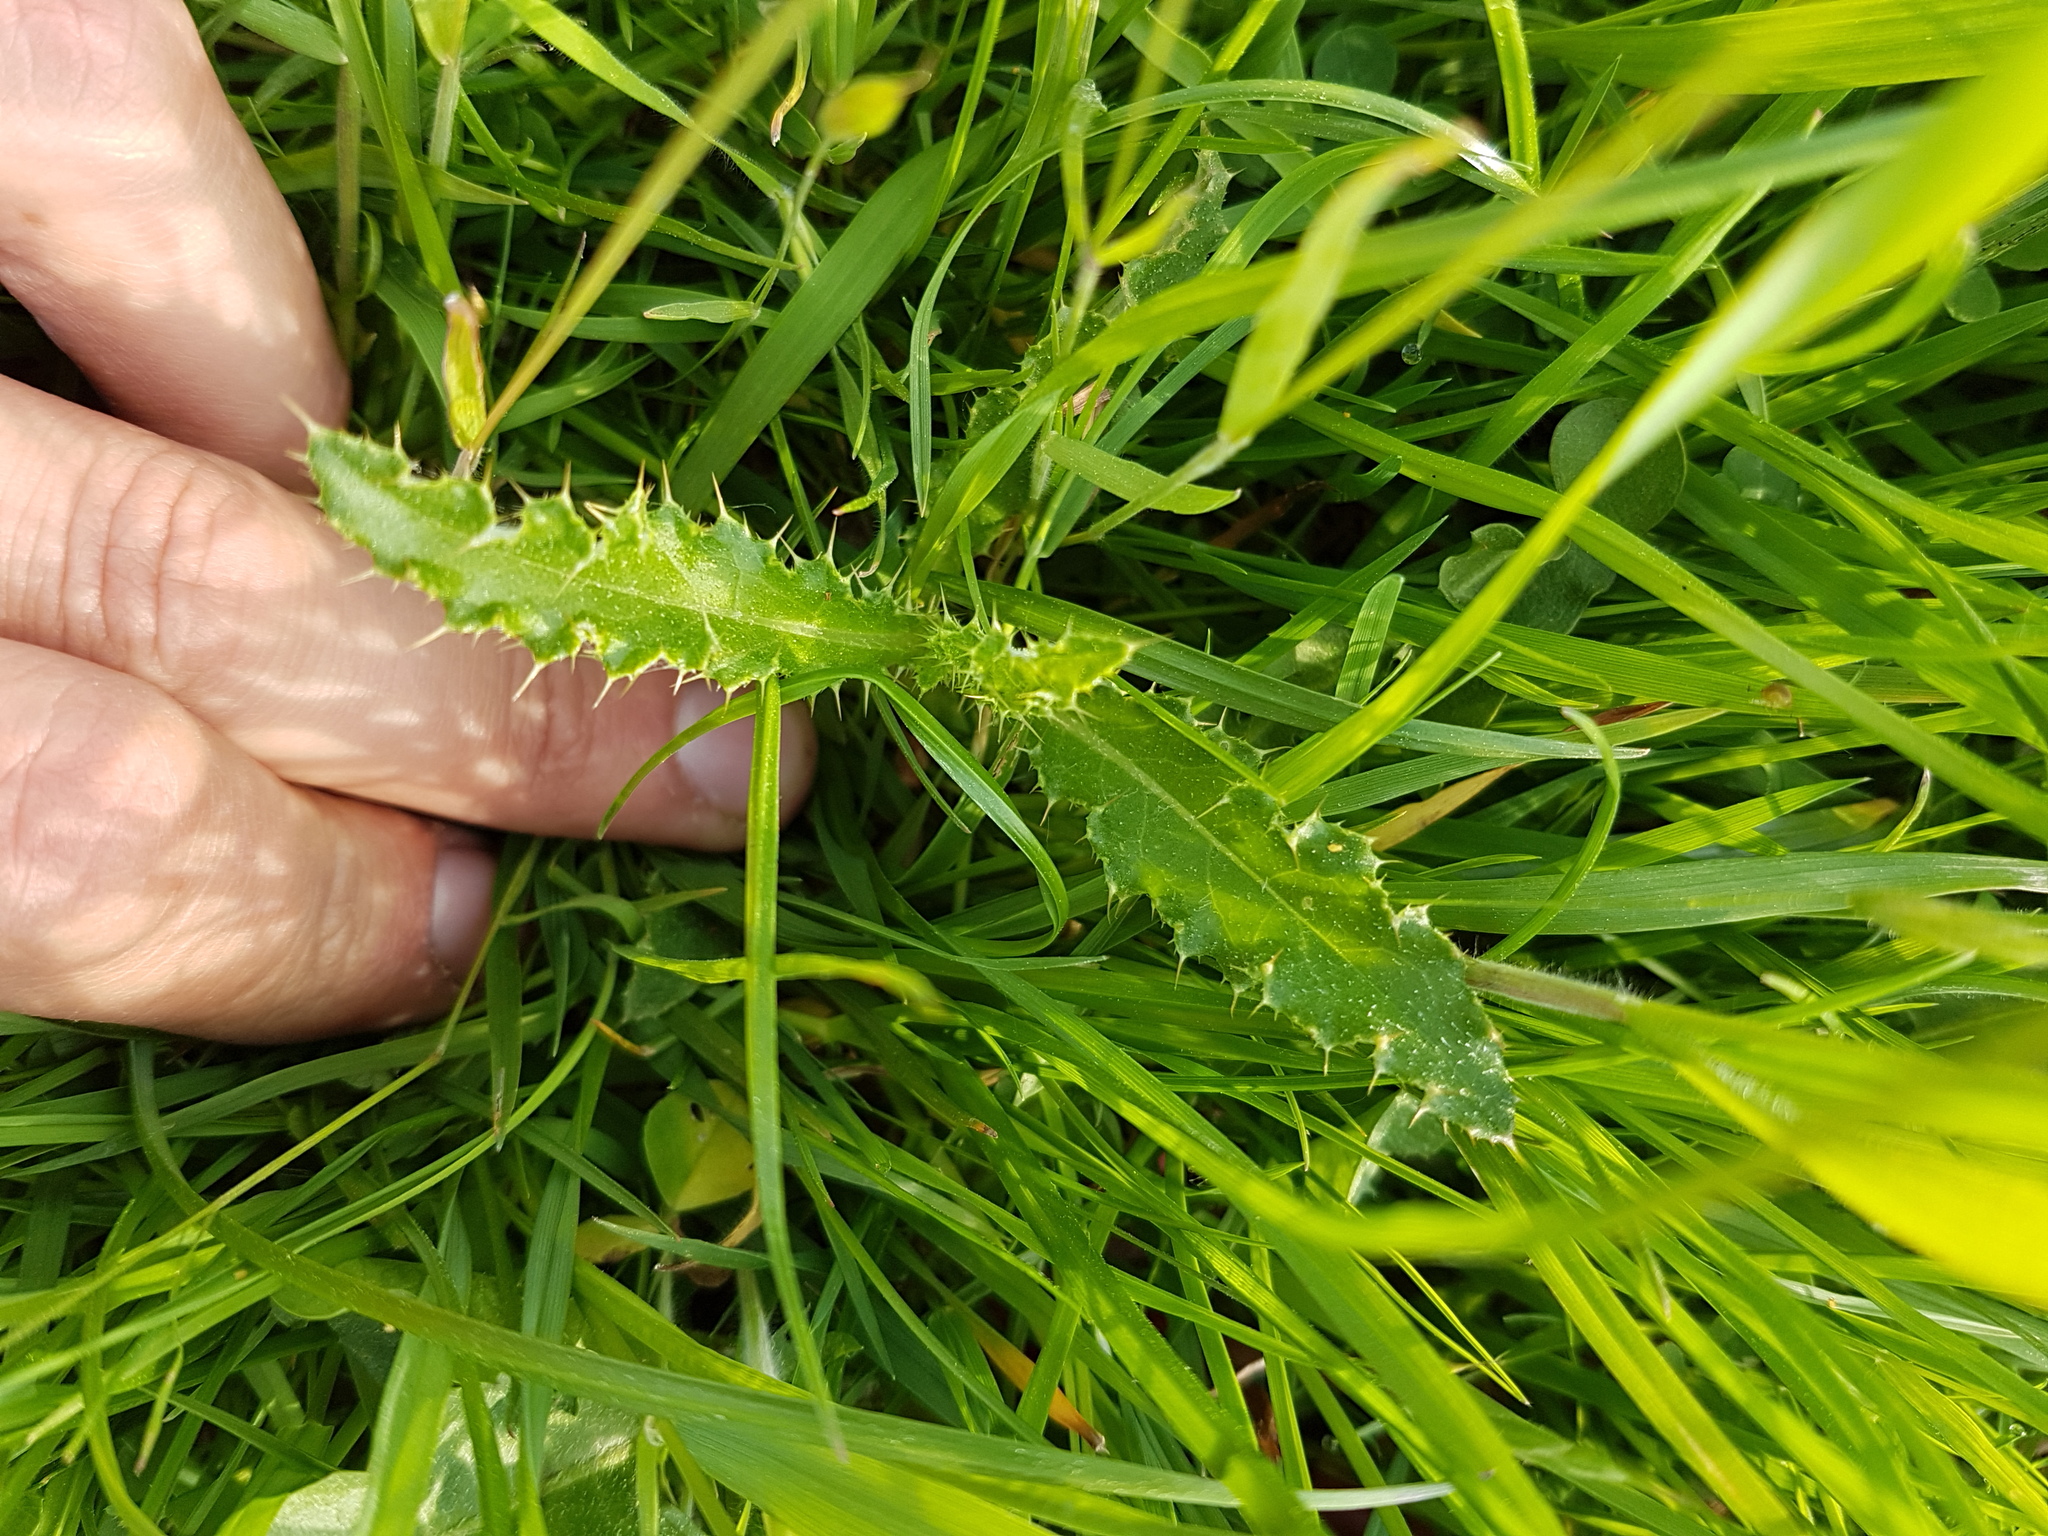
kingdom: Plantae
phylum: Tracheophyta
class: Magnoliopsida
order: Asterales
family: Asteraceae
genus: Cirsium
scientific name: Cirsium arvense
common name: Creeping thistle
